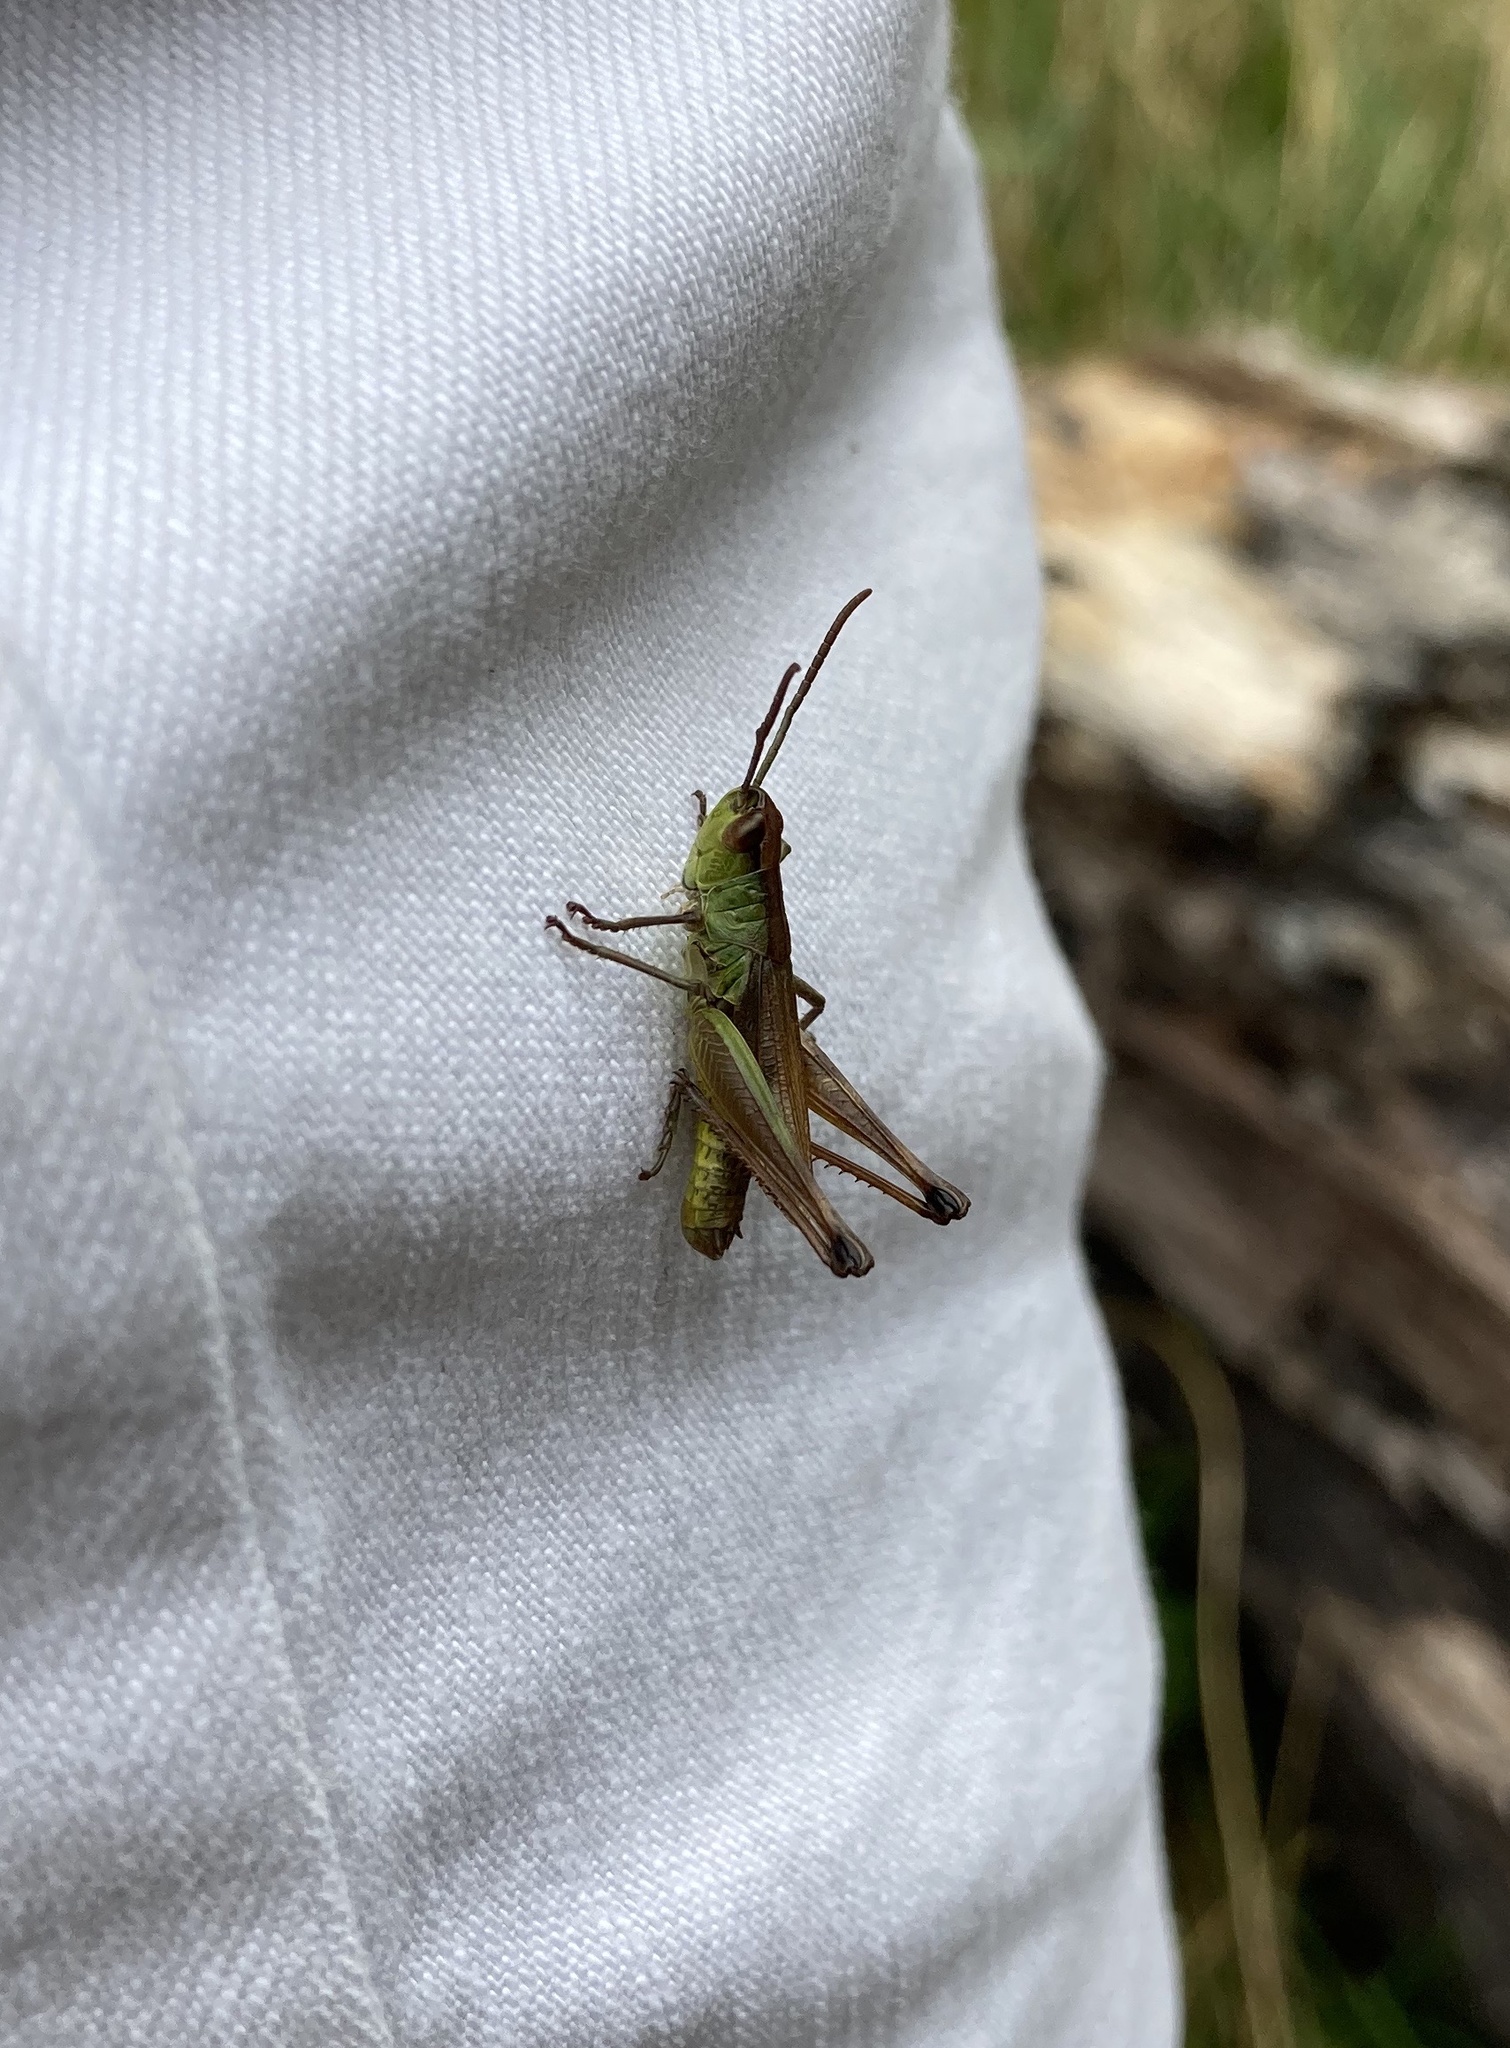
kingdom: Animalia
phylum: Arthropoda
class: Insecta
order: Orthoptera
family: Acrididae
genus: Pseudochorthippus
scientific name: Pseudochorthippus parallelus
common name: Meadow grasshopper
